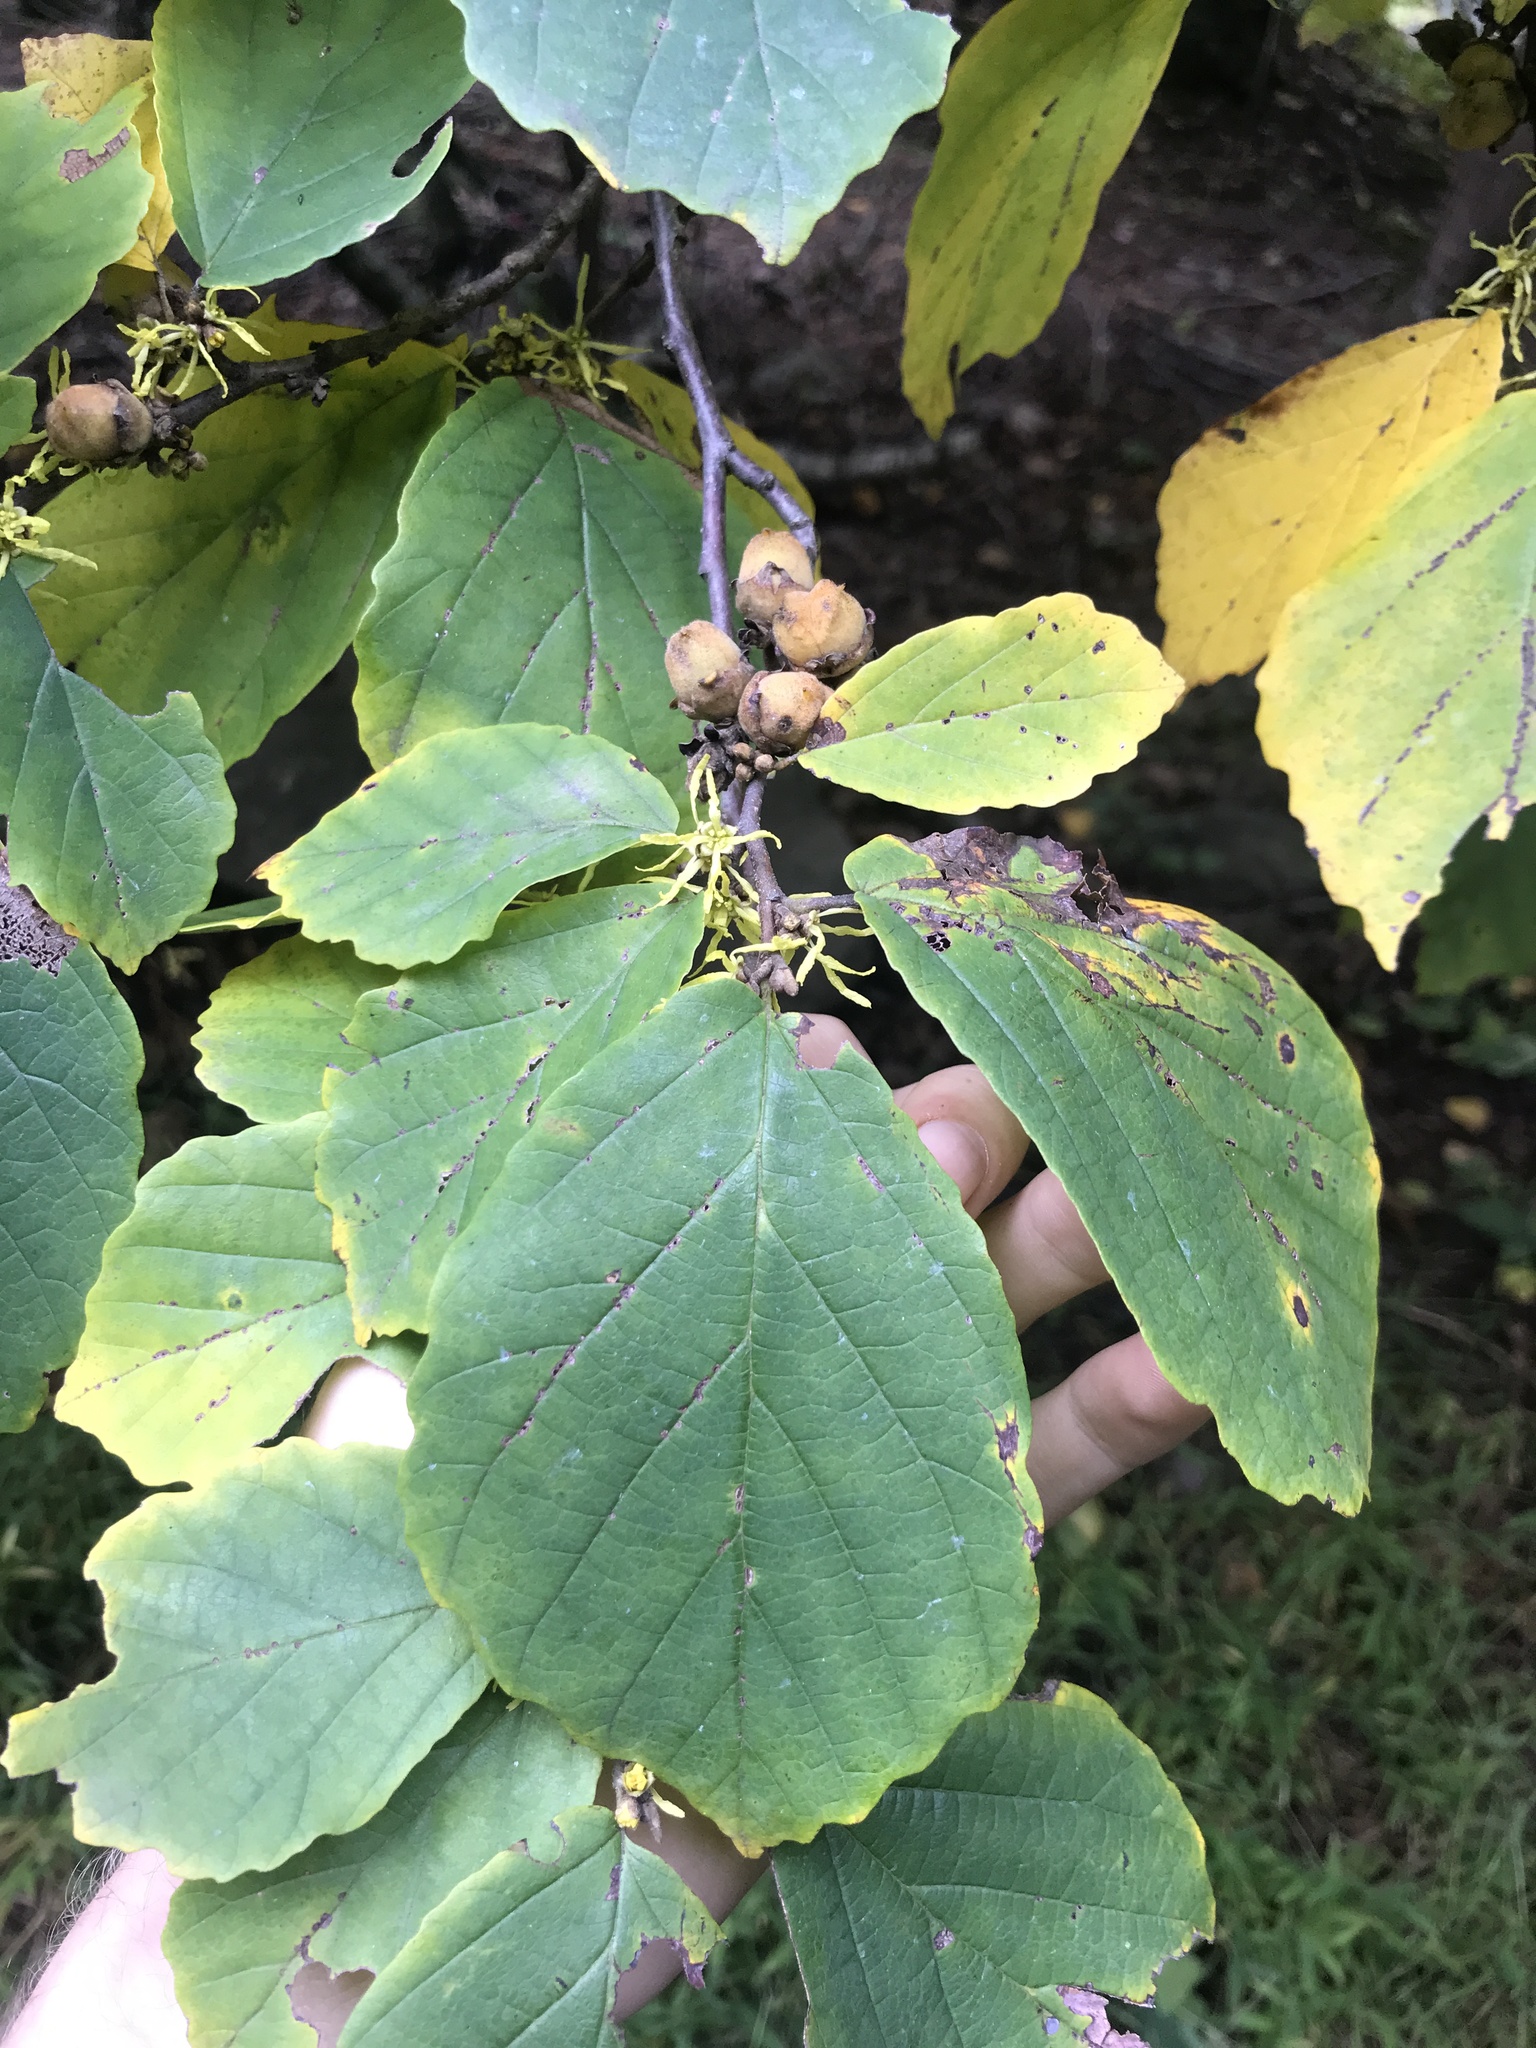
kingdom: Plantae
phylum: Tracheophyta
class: Magnoliopsida
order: Saxifragales
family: Hamamelidaceae
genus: Hamamelis
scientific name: Hamamelis virginiana
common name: Witch-hazel
